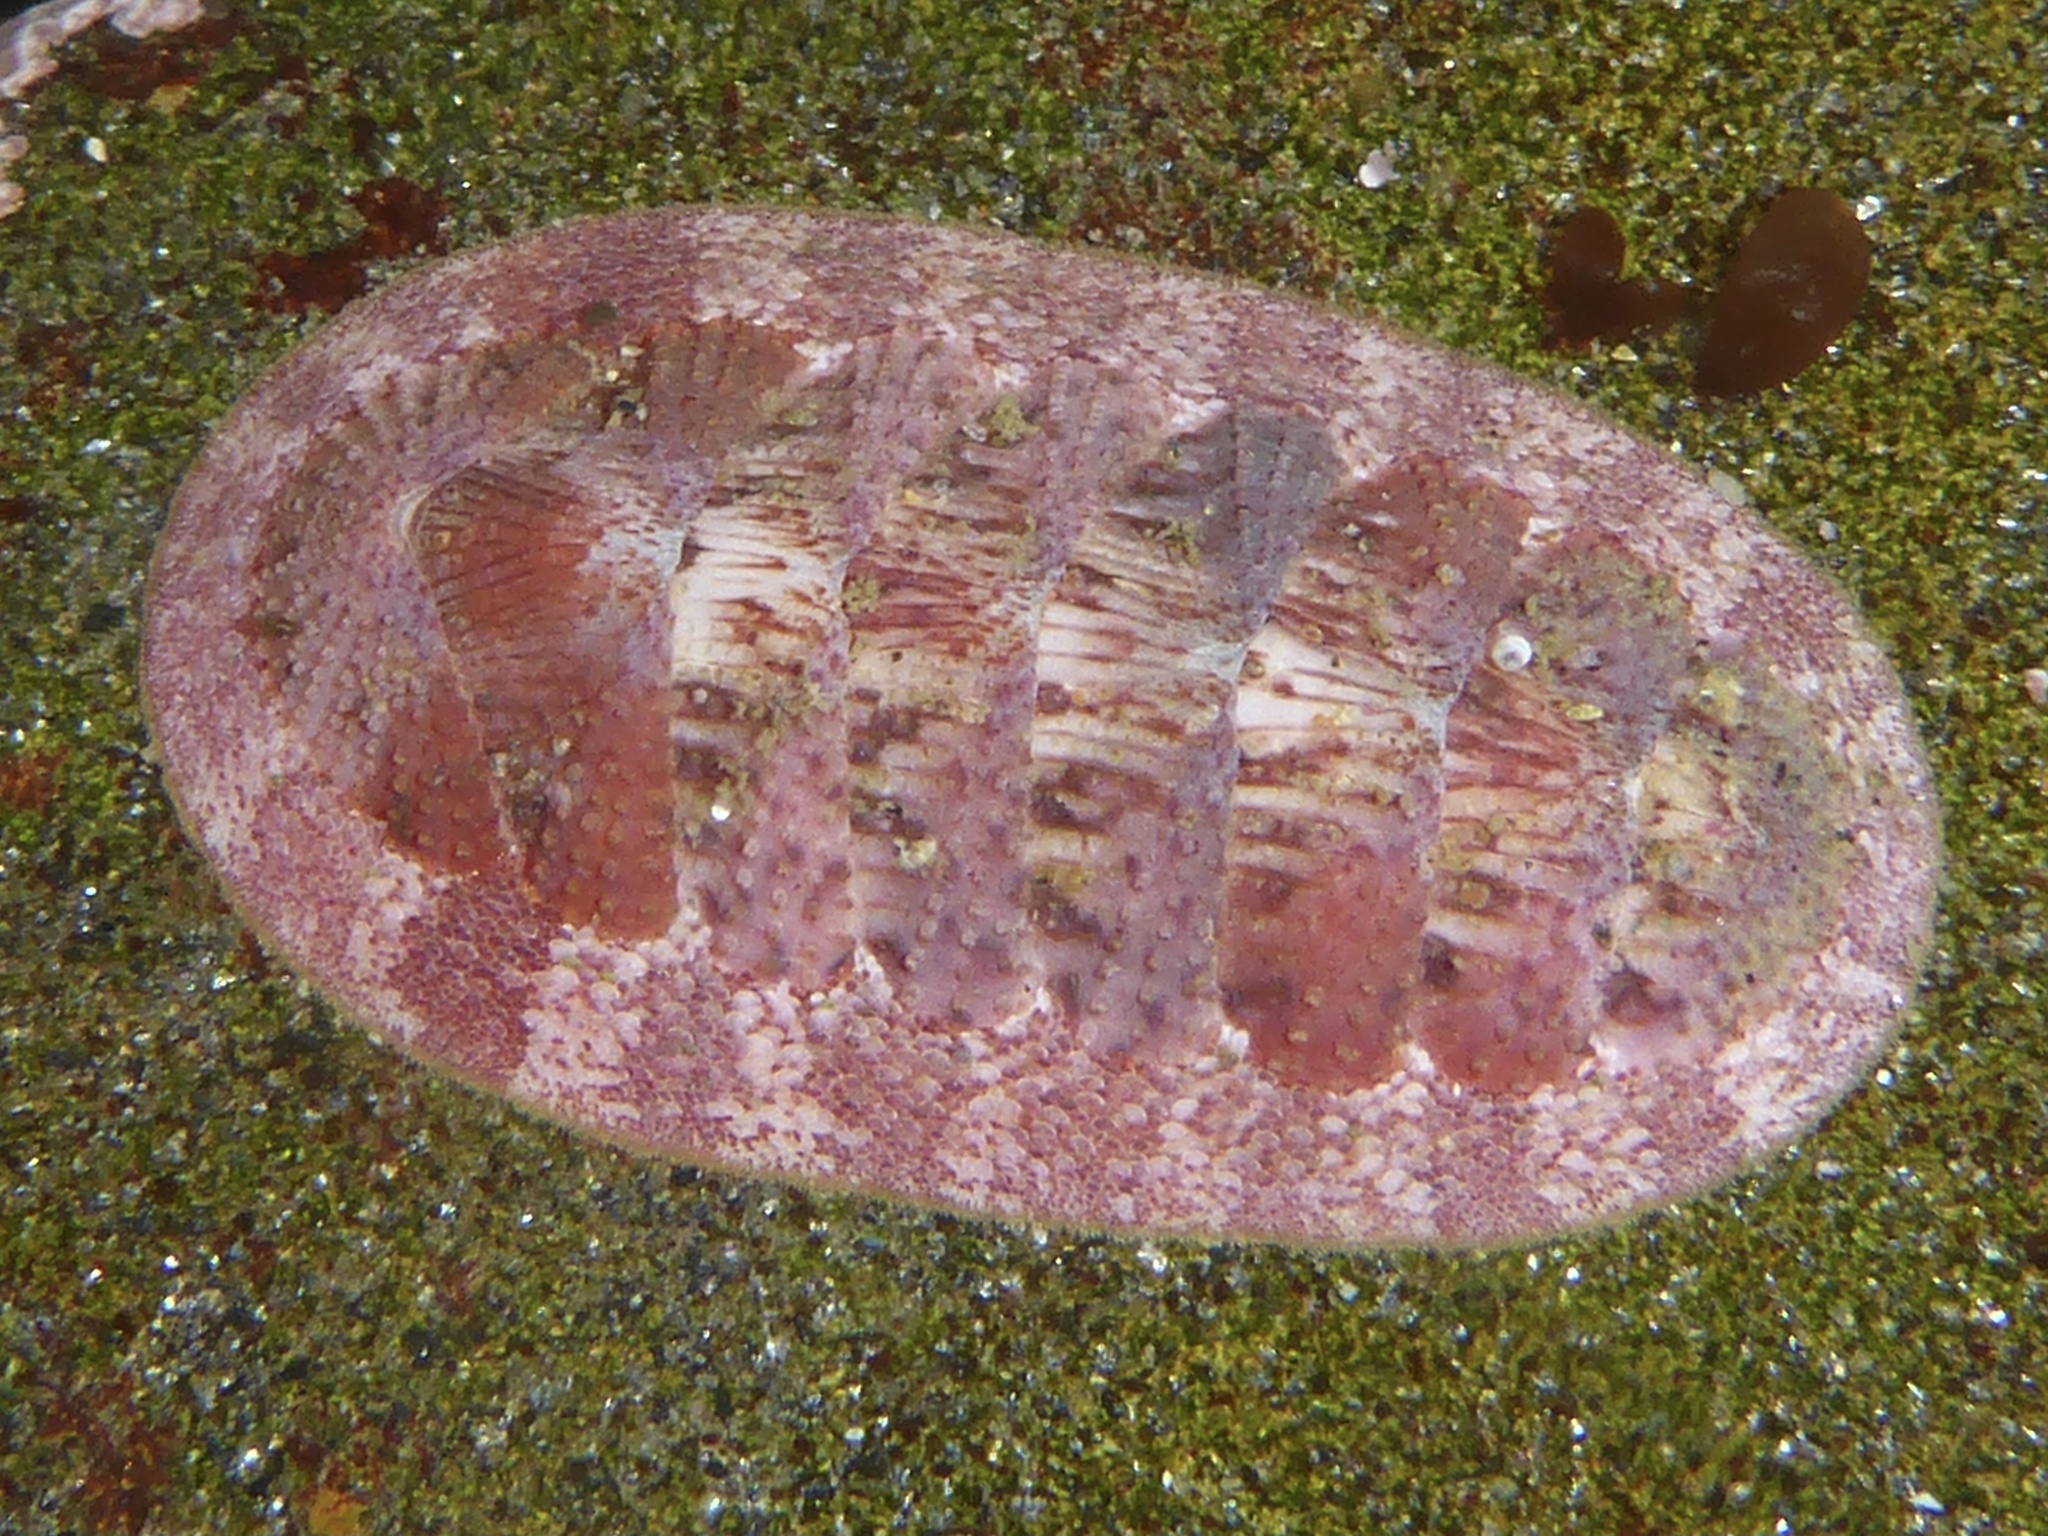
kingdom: Animalia
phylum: Mollusca
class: Polyplacophora
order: Chitonida
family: Ischnochitonidae
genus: Lepidozona
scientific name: Lepidozona mertensii
